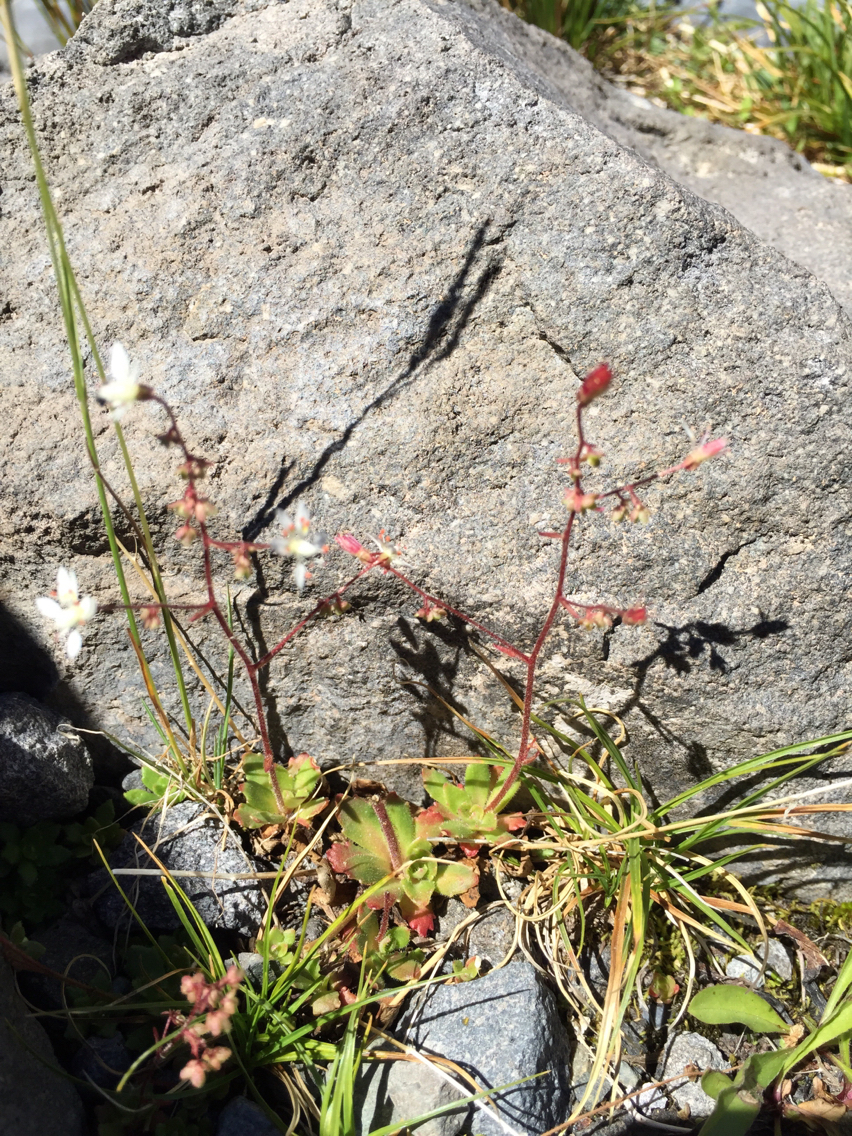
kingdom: Plantae
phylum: Tracheophyta
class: Magnoliopsida
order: Saxifragales
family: Saxifragaceae
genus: Micranthes
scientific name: Micranthes ferruginea
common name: Rusty saxifrage
